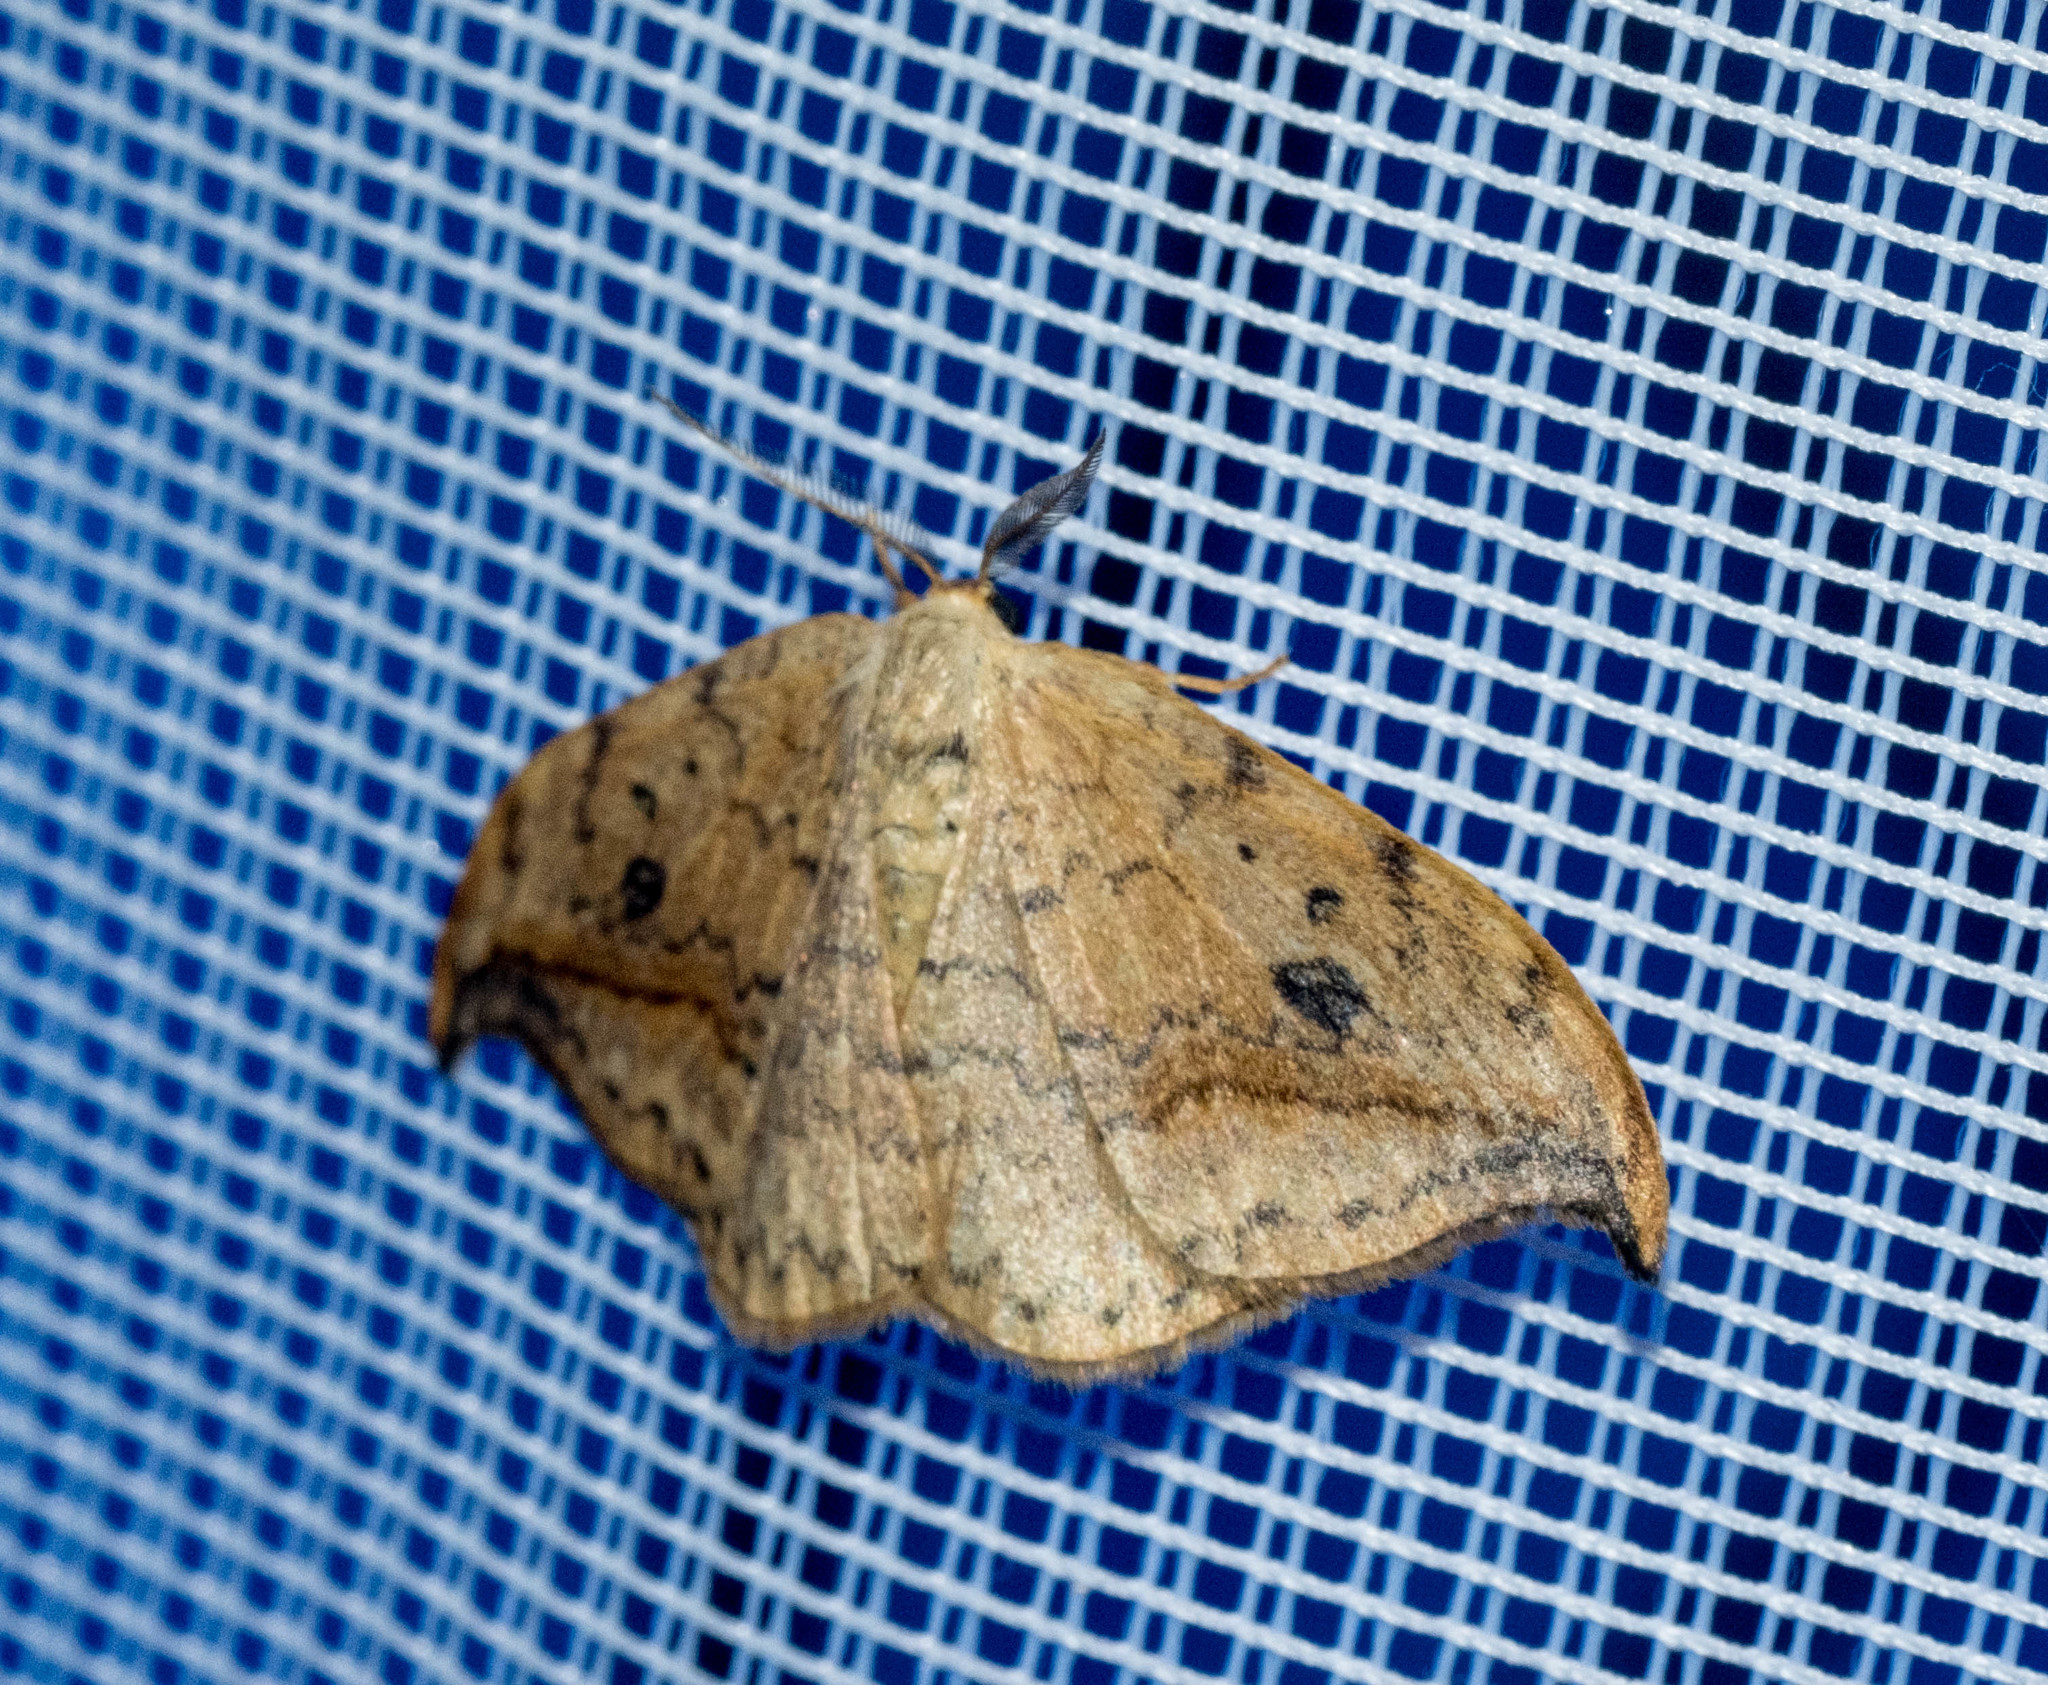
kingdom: Animalia
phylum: Arthropoda
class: Insecta
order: Lepidoptera
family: Drepanidae
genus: Drepana
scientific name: Drepana falcataria
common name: Pebble hook-tip
